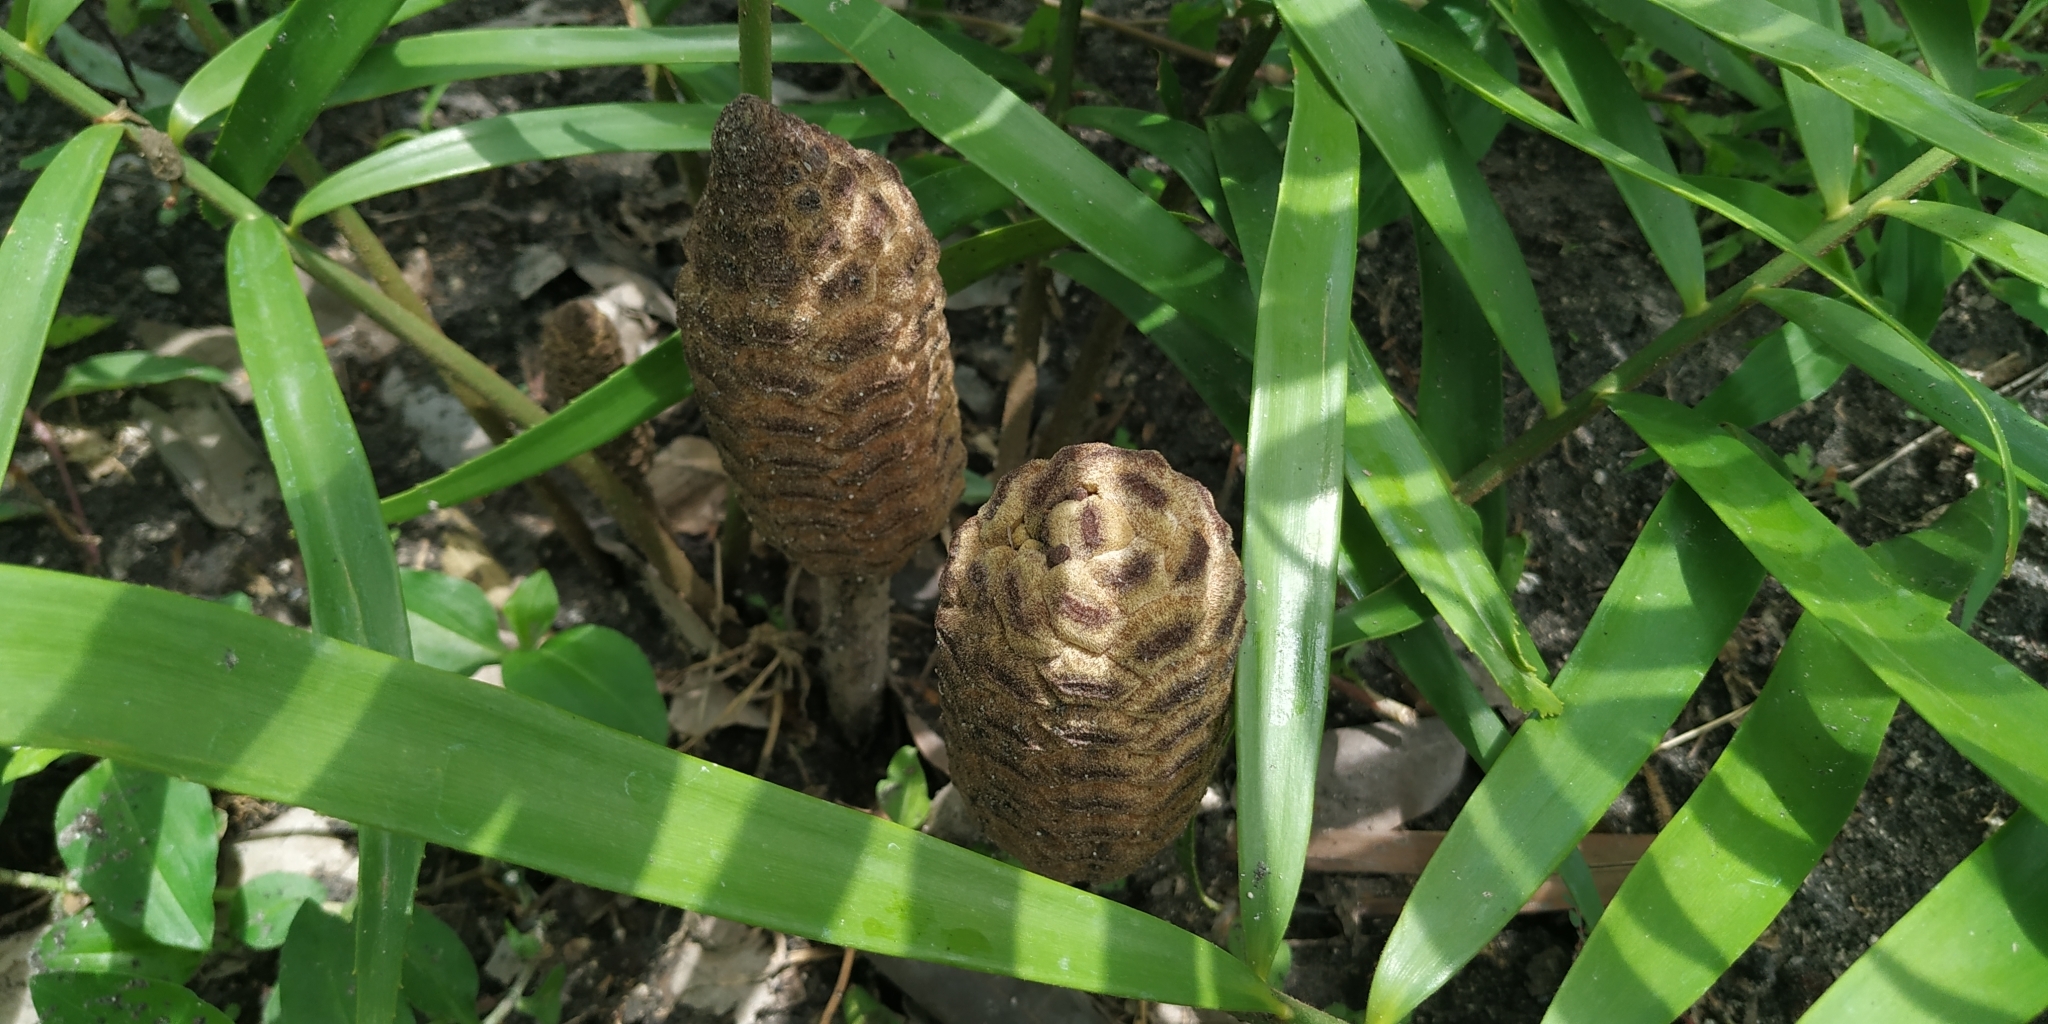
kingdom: Plantae
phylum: Tracheophyta
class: Cycadopsida
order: Cycadales
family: Zamiaceae
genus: Zamia
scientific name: Zamia loddigesii
